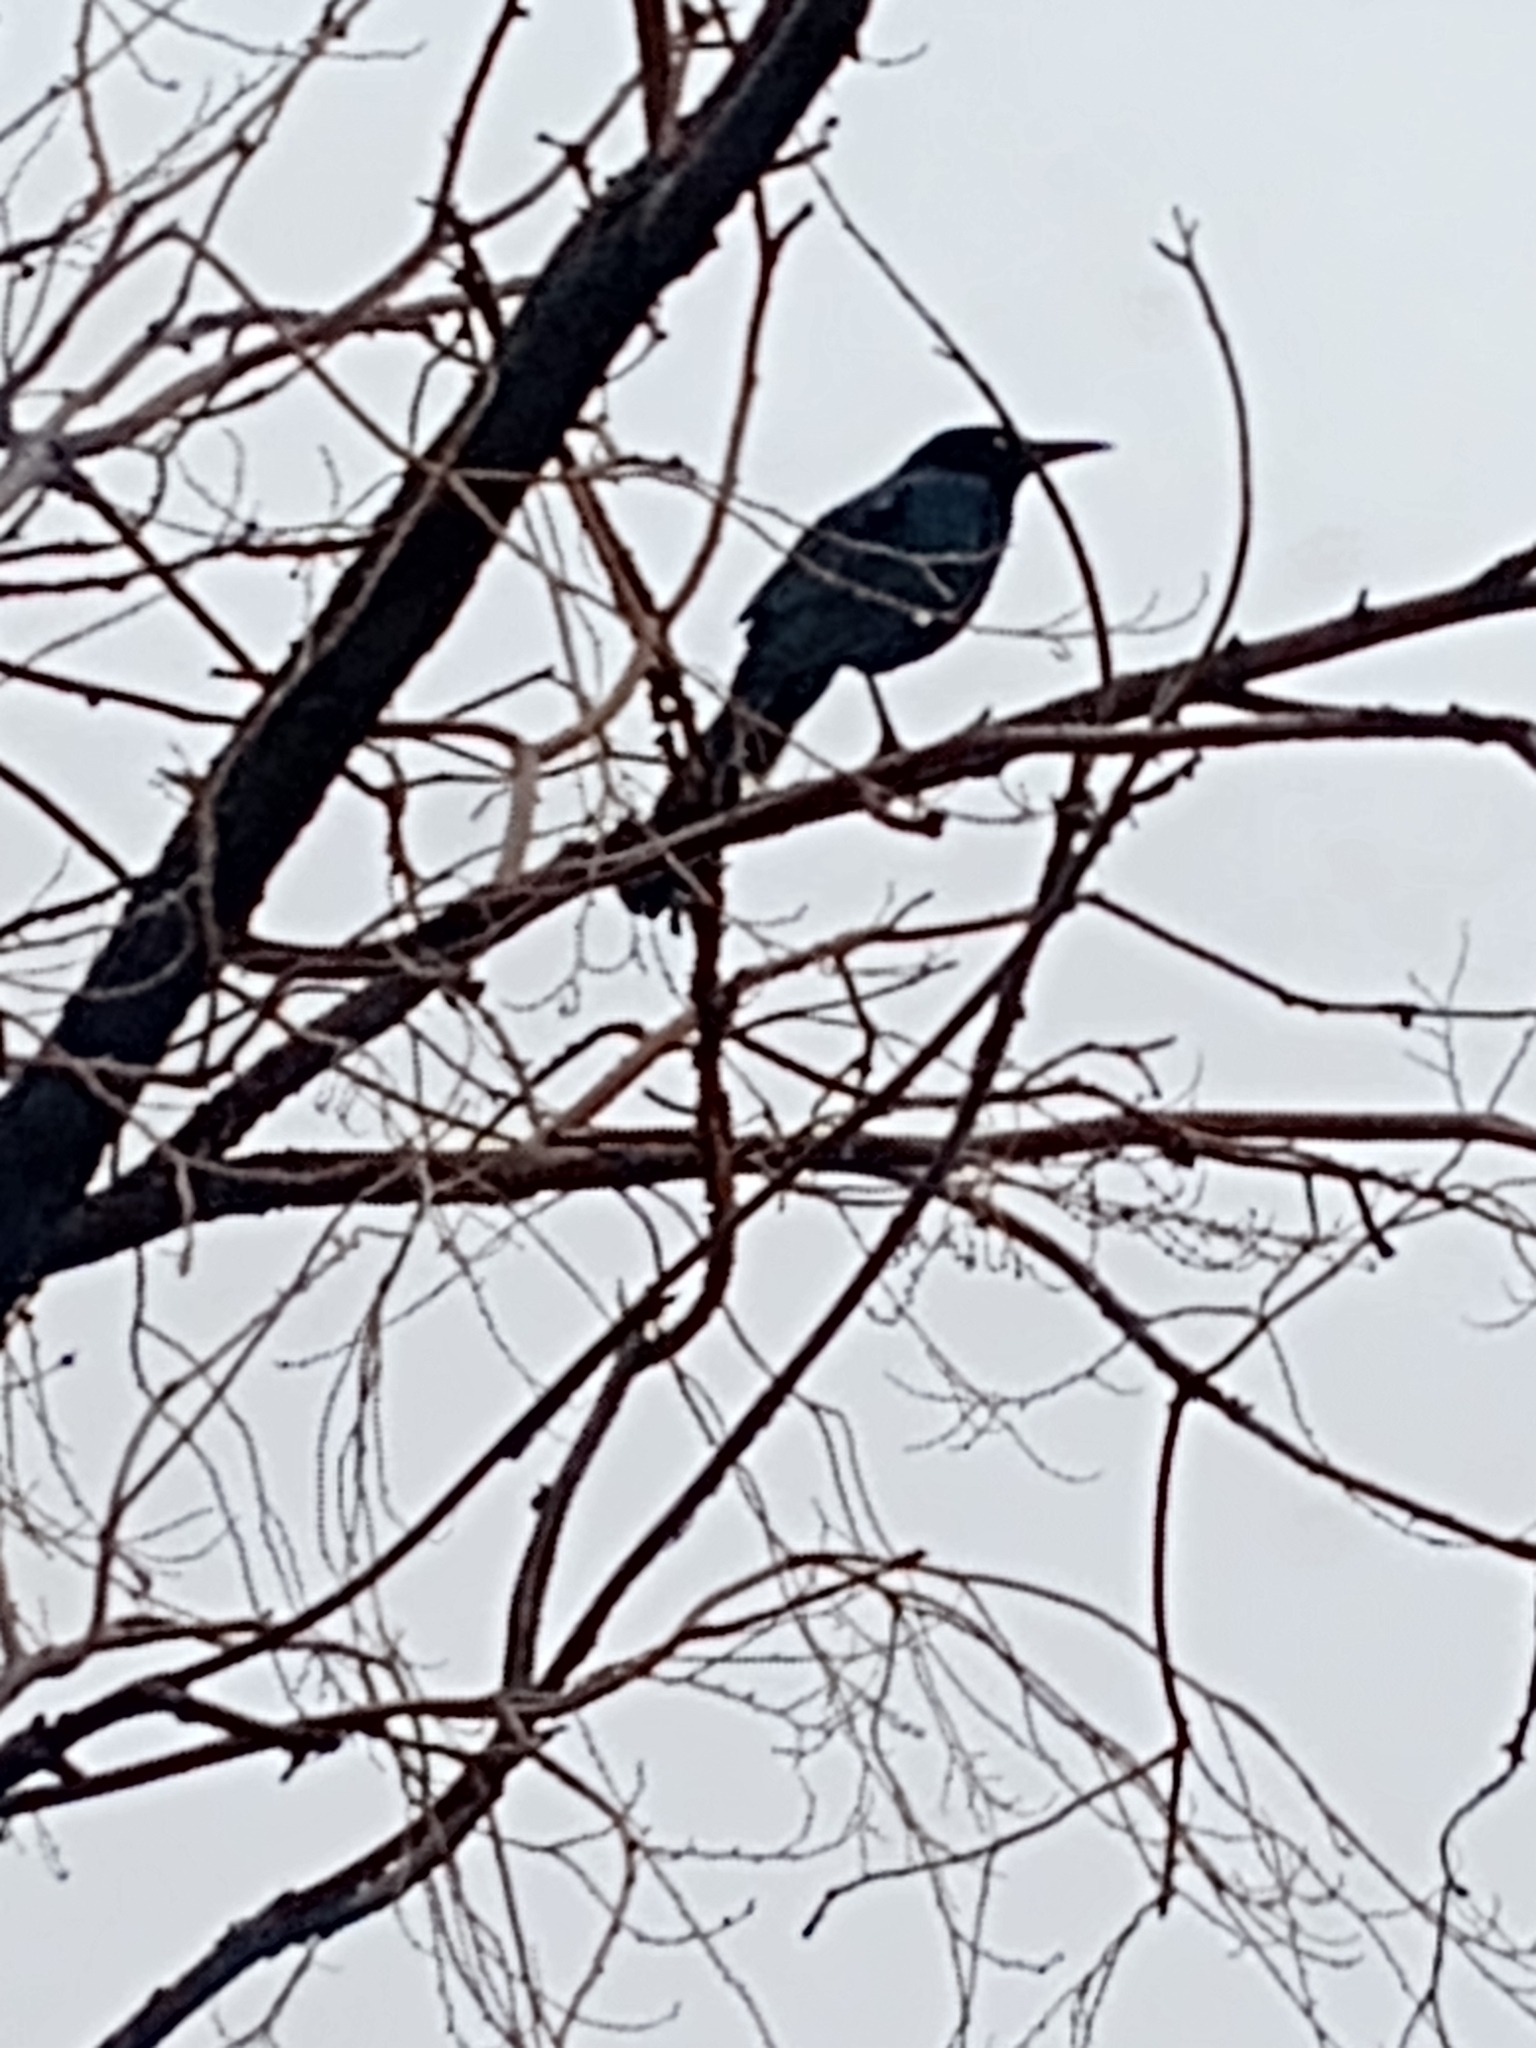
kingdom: Animalia
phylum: Chordata
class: Aves
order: Passeriformes
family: Icteridae
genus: Quiscalus
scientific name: Quiscalus mexicanus
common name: Great-tailed grackle
